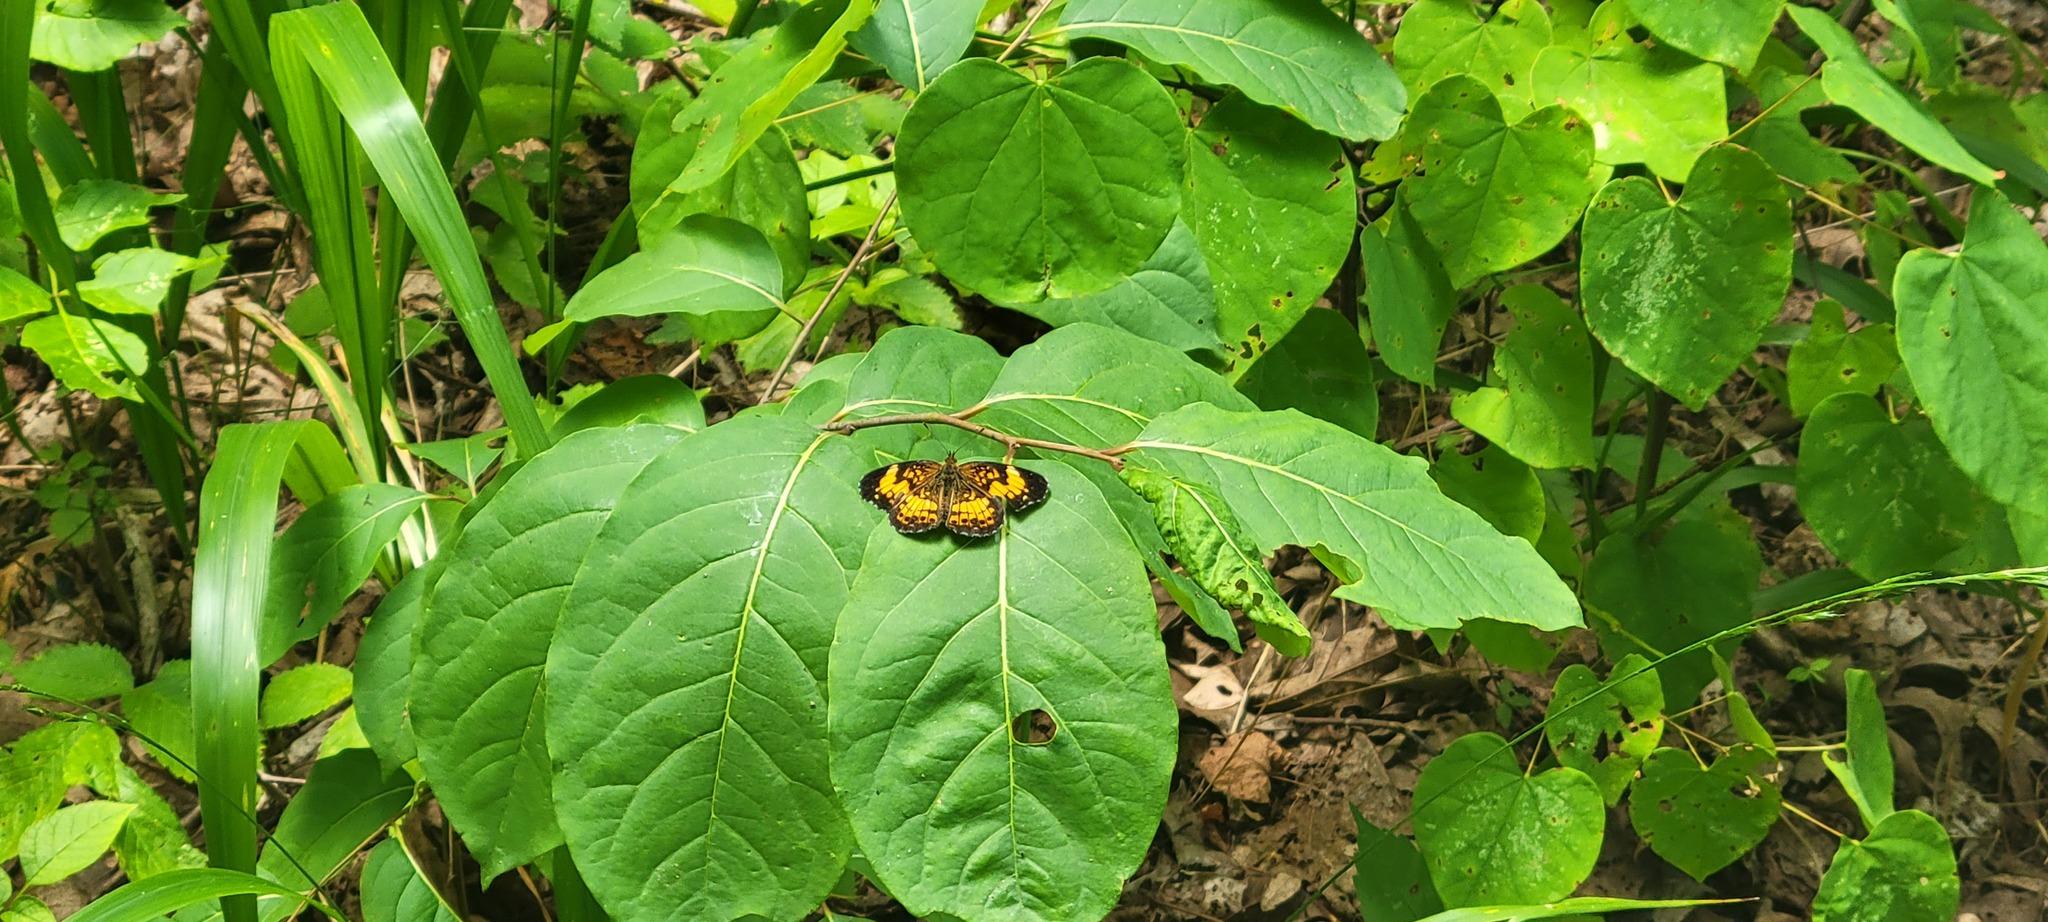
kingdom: Animalia
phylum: Arthropoda
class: Insecta
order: Lepidoptera
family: Nymphalidae
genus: Chlosyne
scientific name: Chlosyne nycteis
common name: Silvery checkerspot
